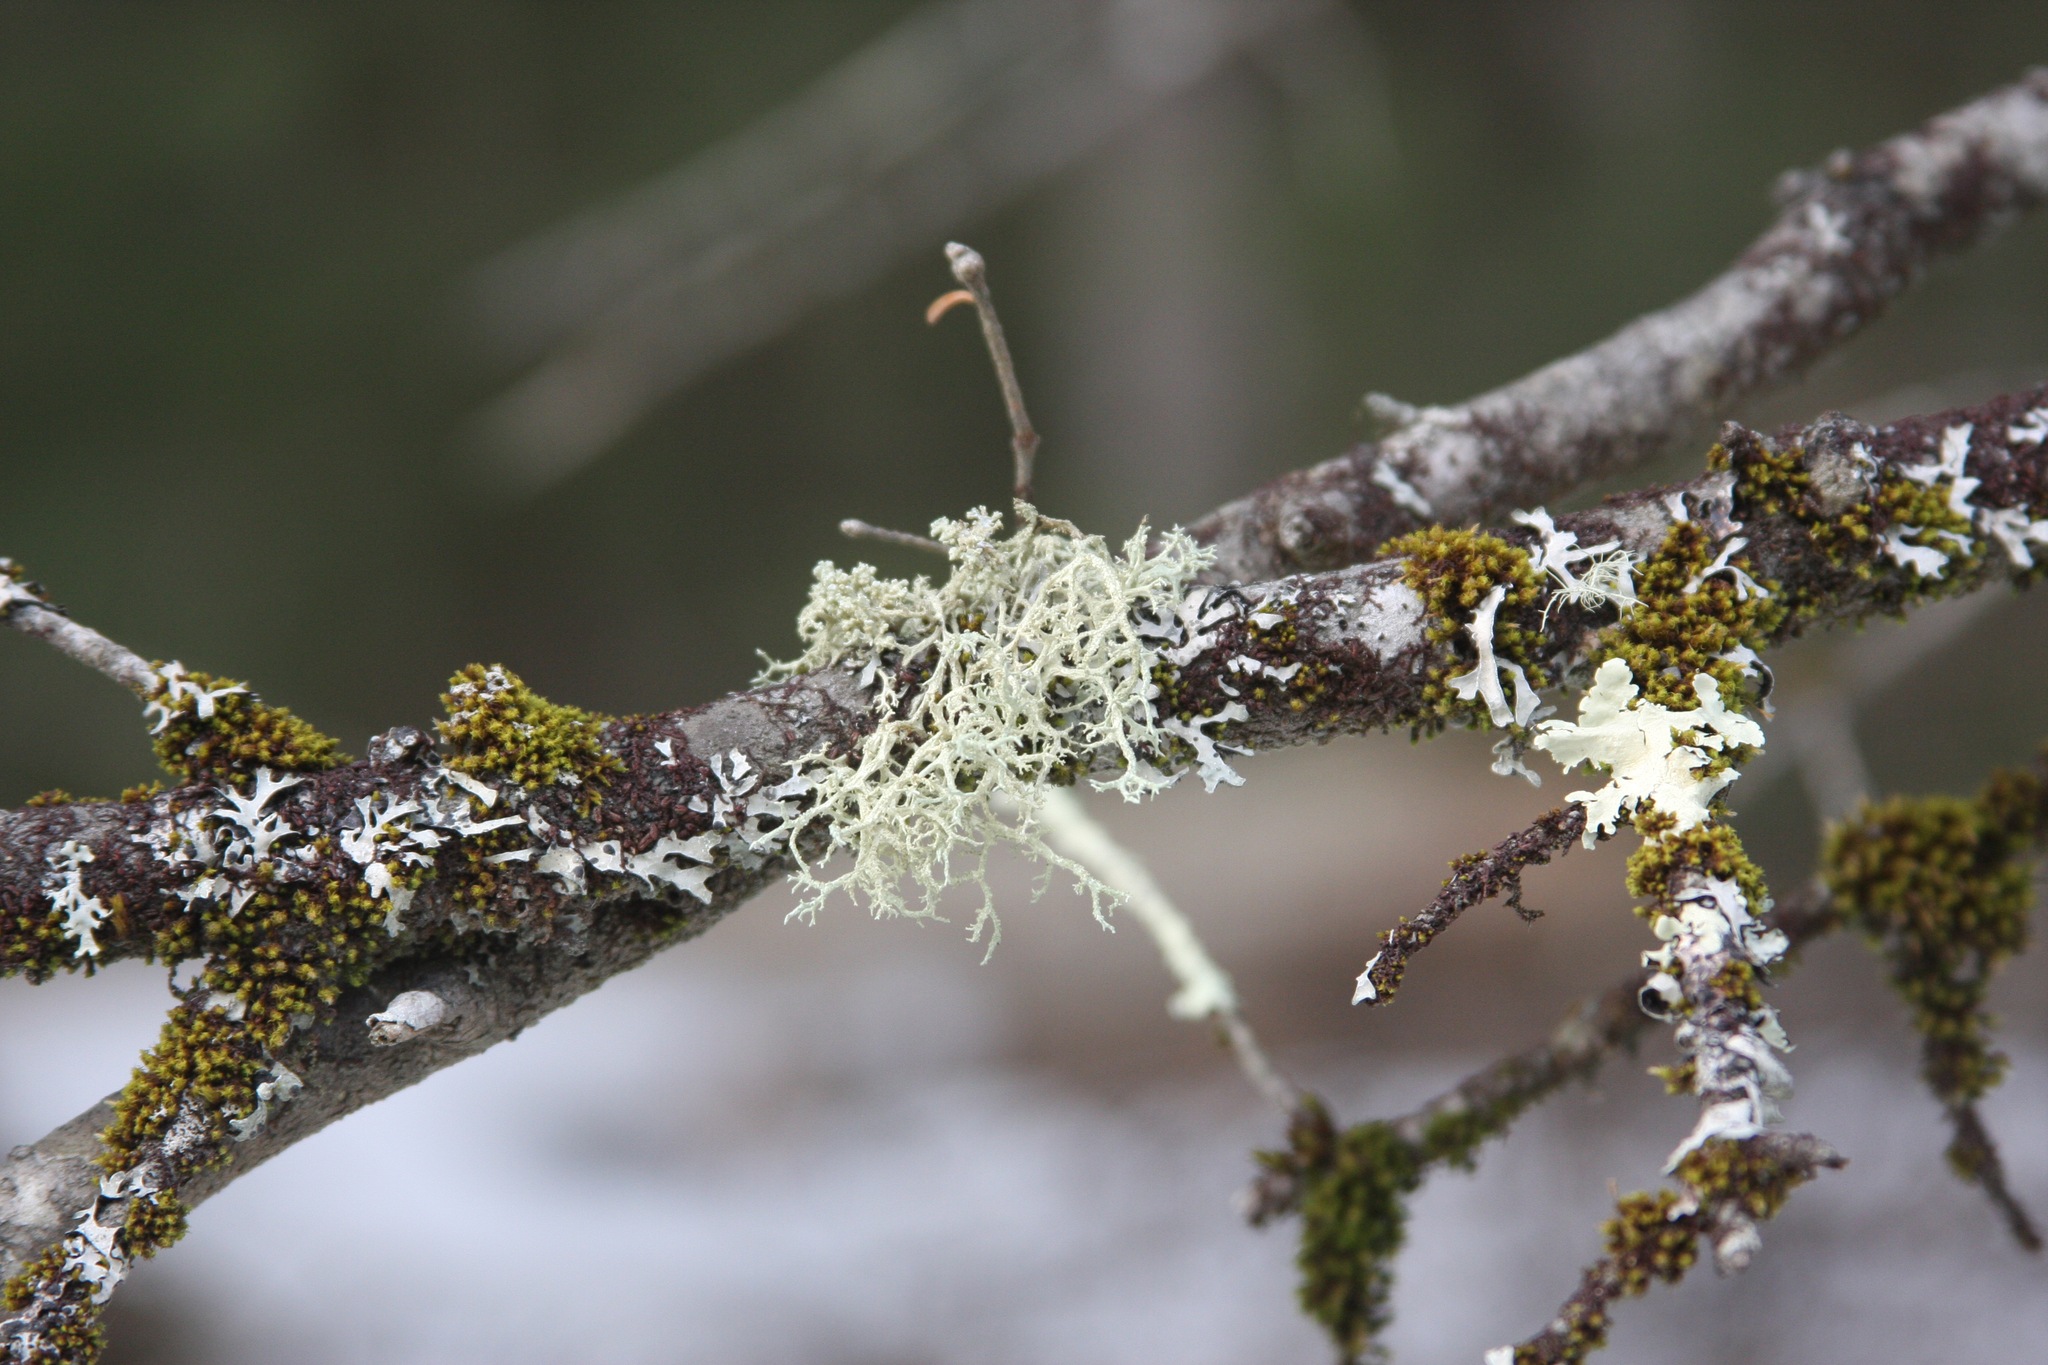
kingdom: Plantae
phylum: Bryophyta
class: Bryopsida
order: Orthotrichales
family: Orthotrichaceae
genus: Ulota
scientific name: Ulota crispa
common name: Crisped pincushion moss
